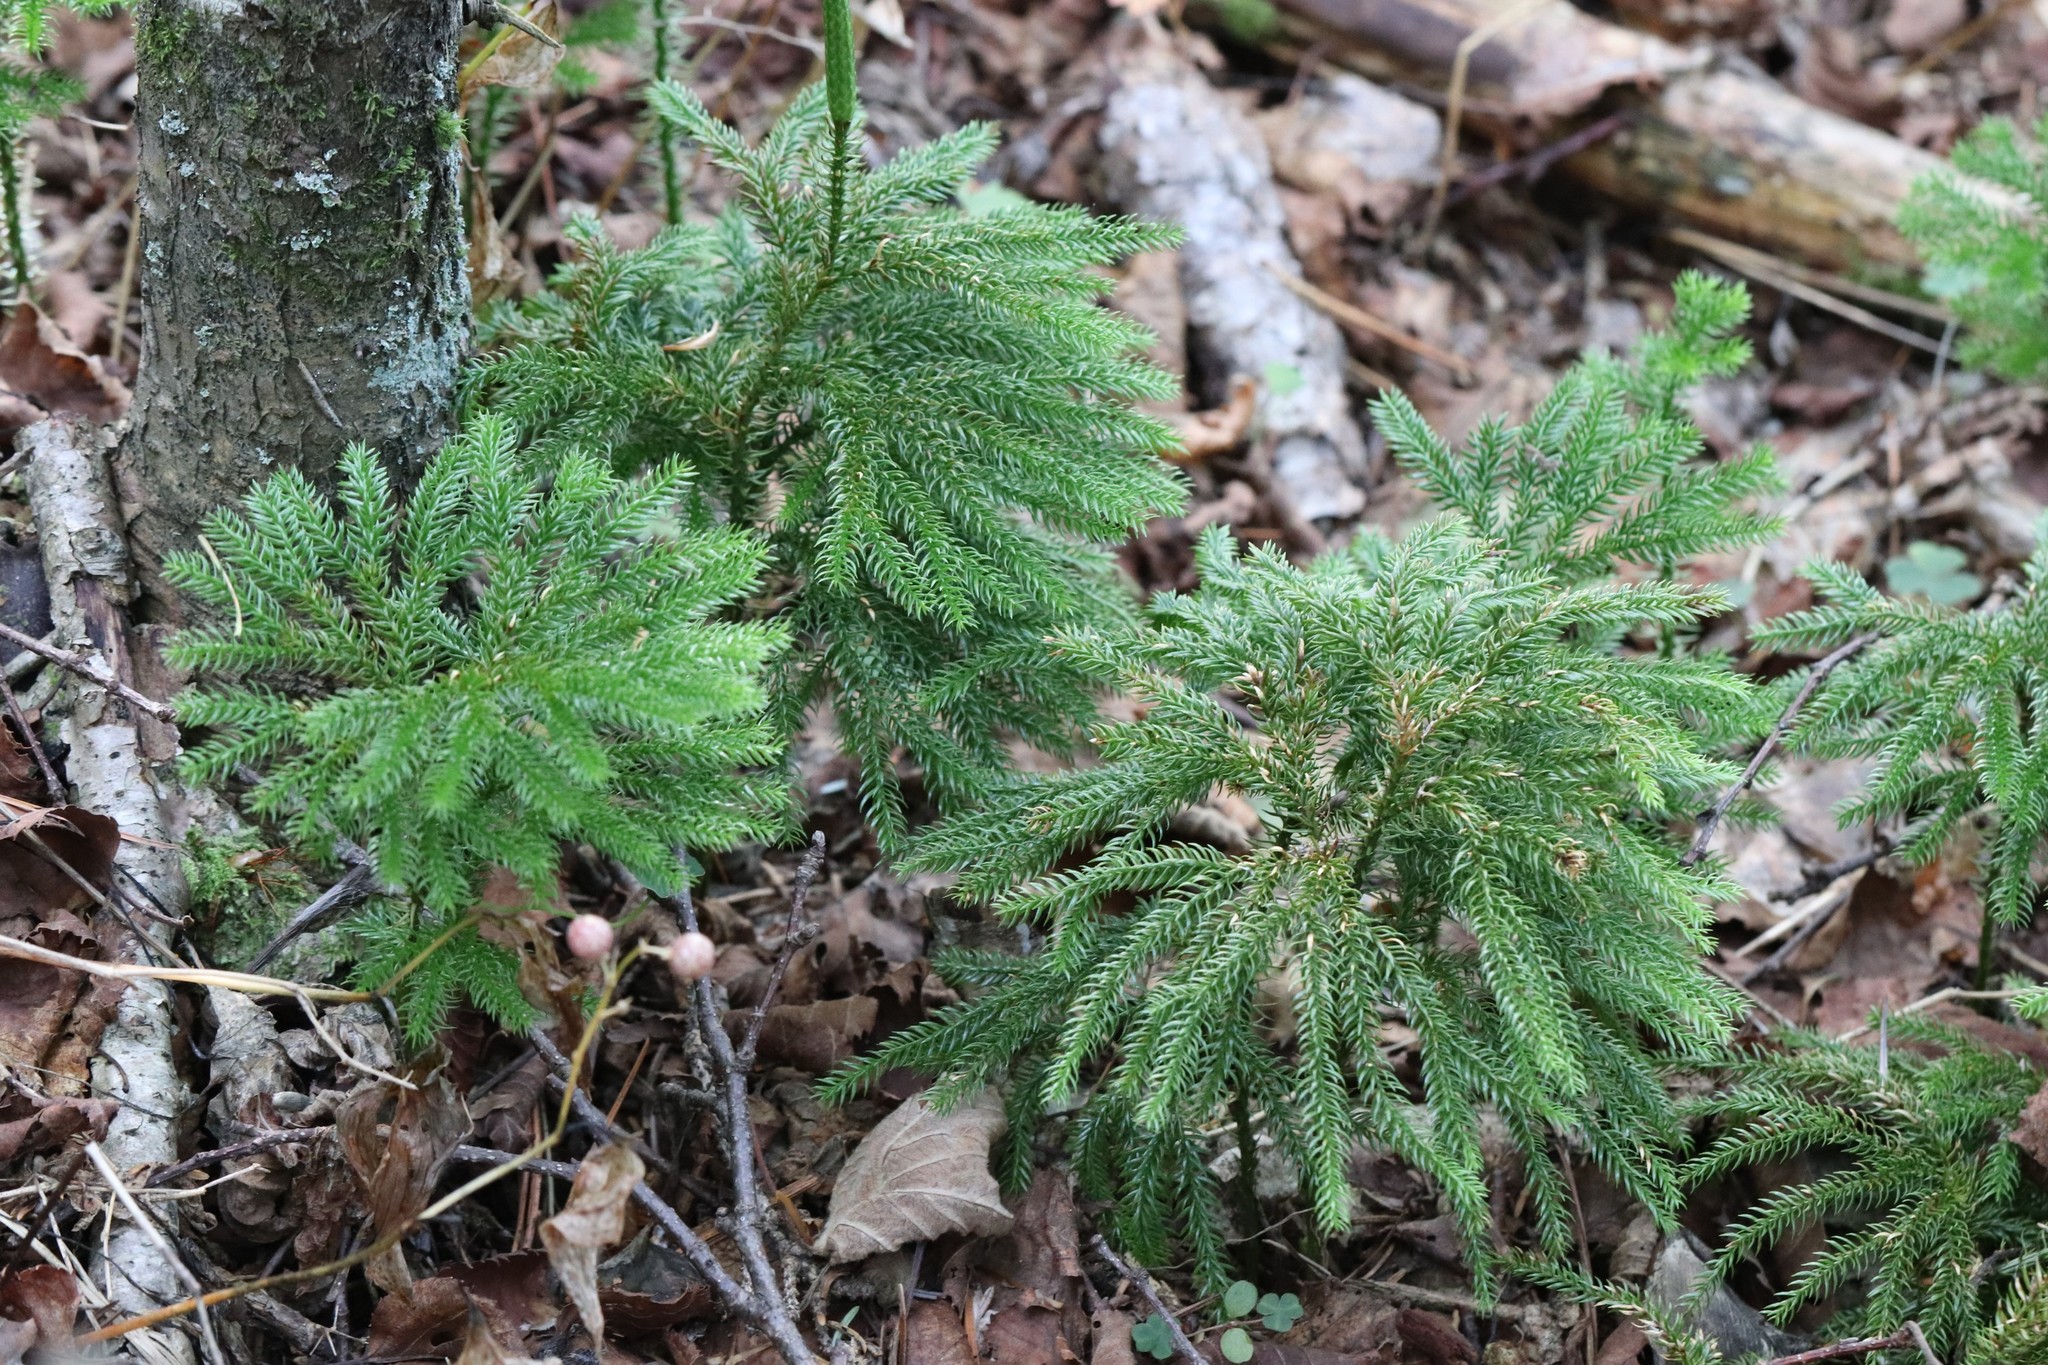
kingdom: Plantae
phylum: Tracheophyta
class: Lycopodiopsida
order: Lycopodiales
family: Lycopodiaceae
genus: Dendrolycopodium
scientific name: Dendrolycopodium obscurum
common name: Common ground-pine
